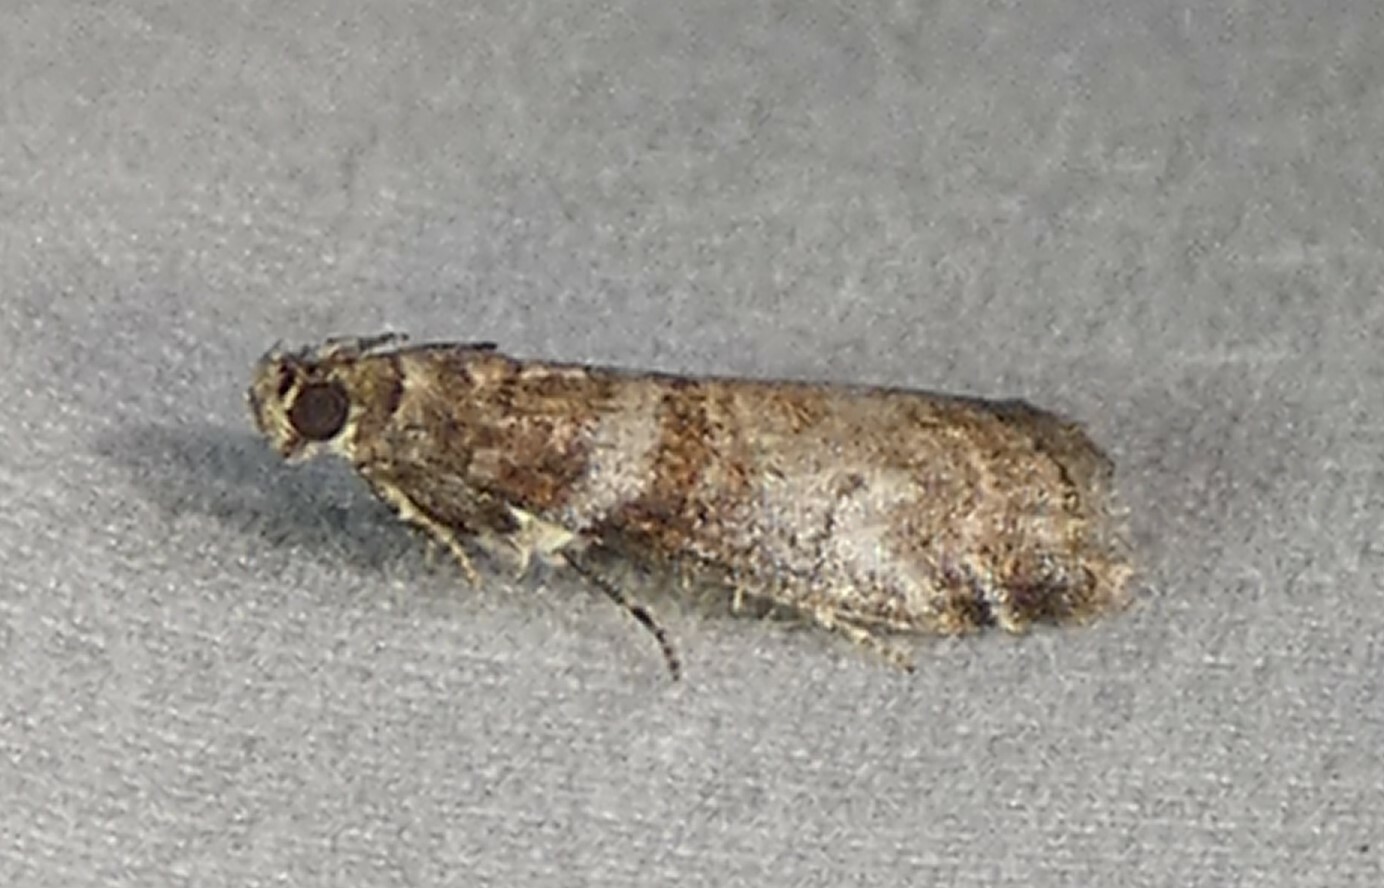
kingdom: Animalia
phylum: Arthropoda
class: Insecta
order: Lepidoptera
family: Pyralidae
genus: Sciota
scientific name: Sciota uvinella
